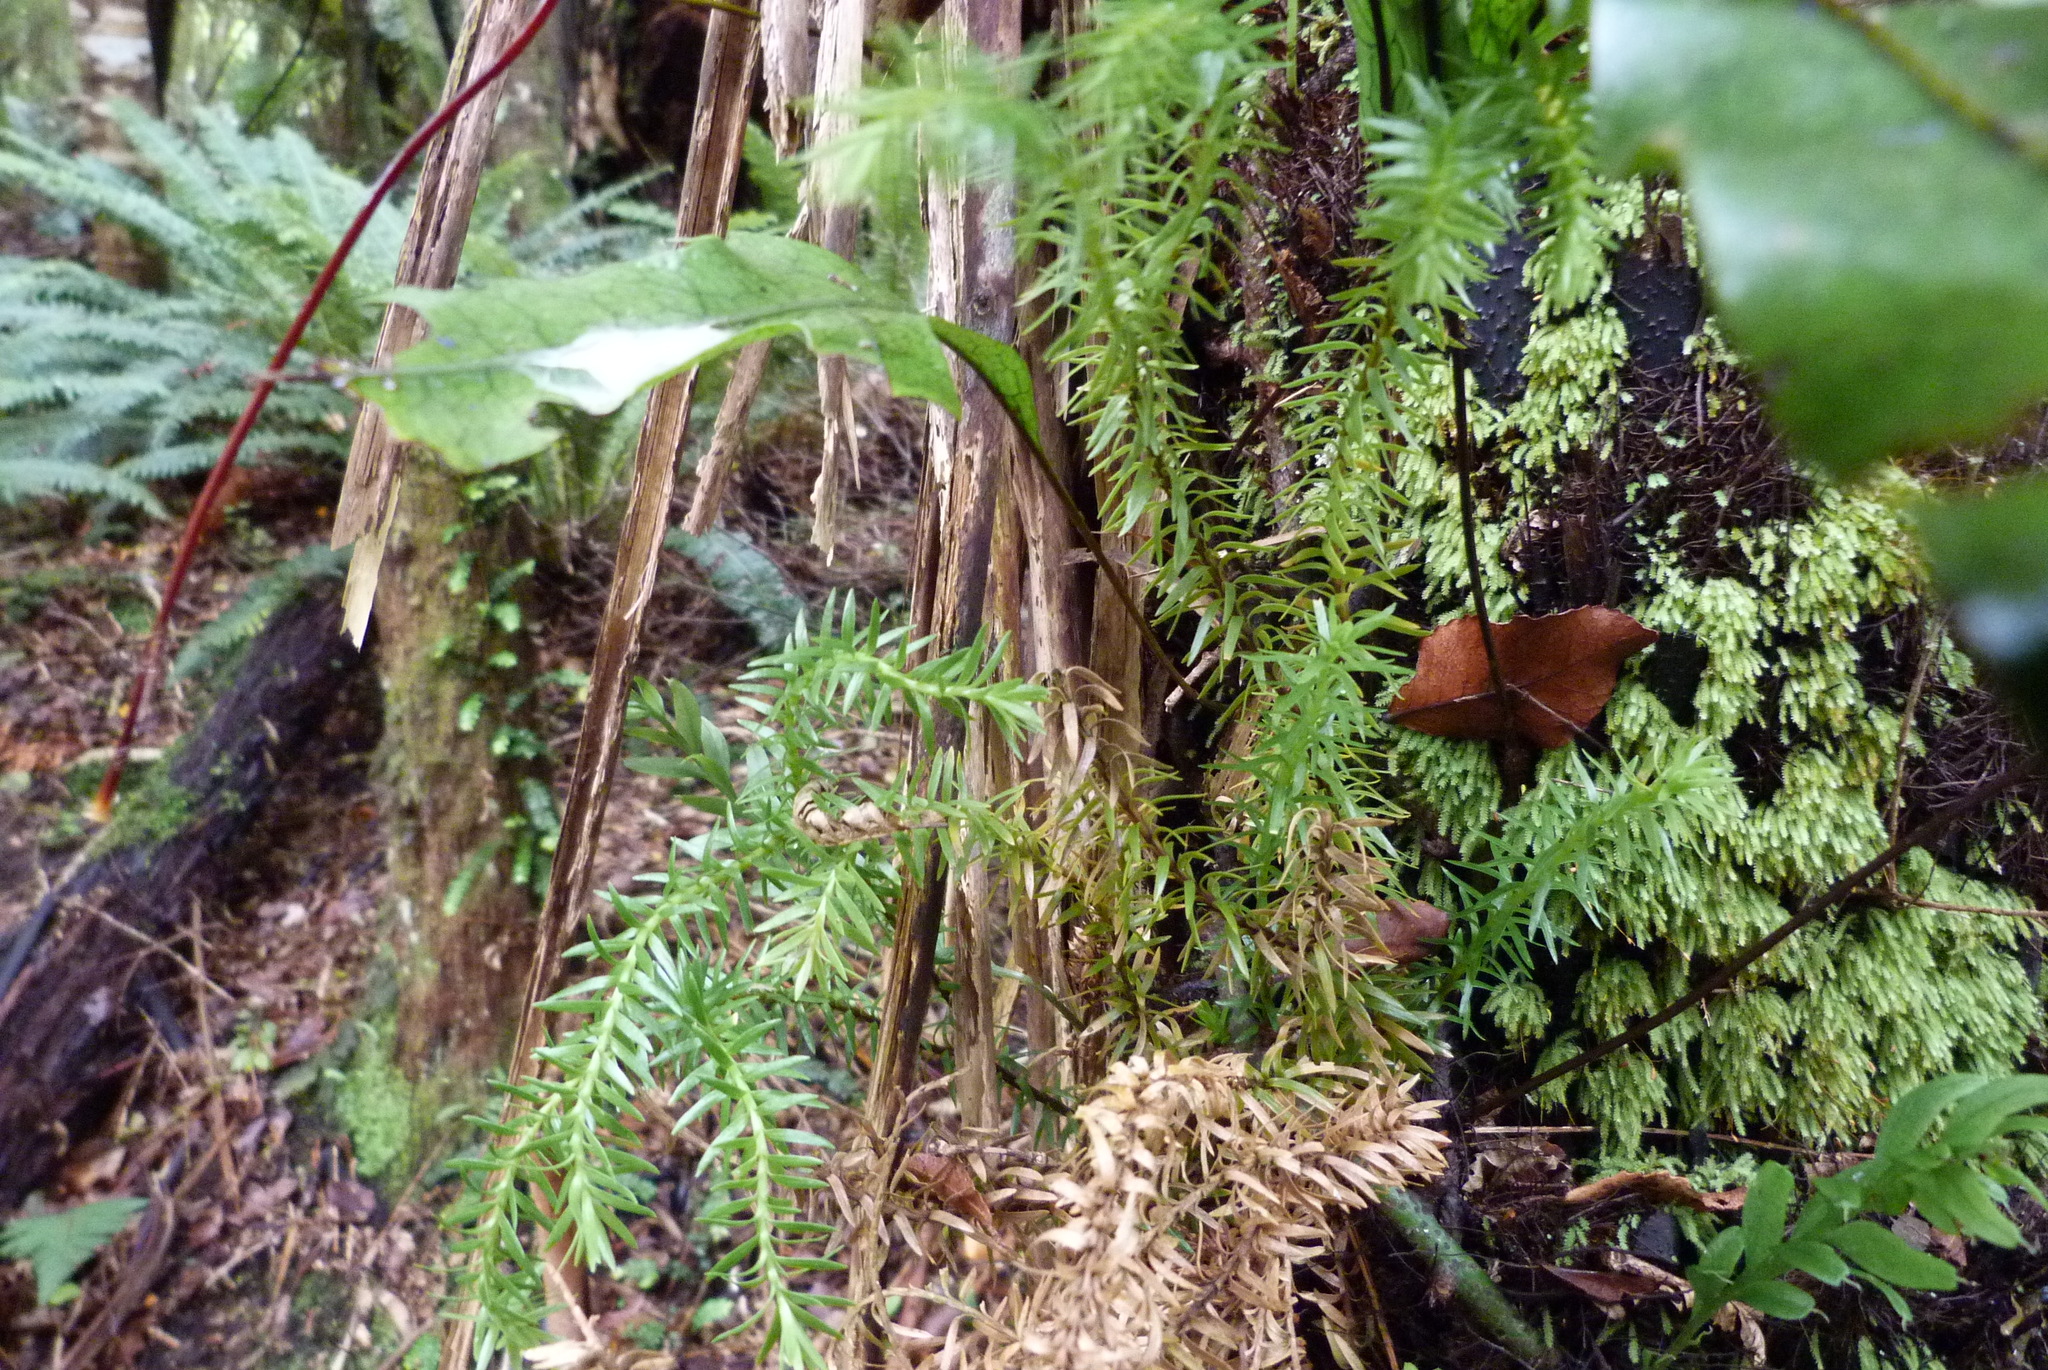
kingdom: Plantae
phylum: Tracheophyta
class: Lycopodiopsida
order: Lycopodiales
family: Lycopodiaceae
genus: Phlegmariurus
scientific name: Phlegmariurus varius
